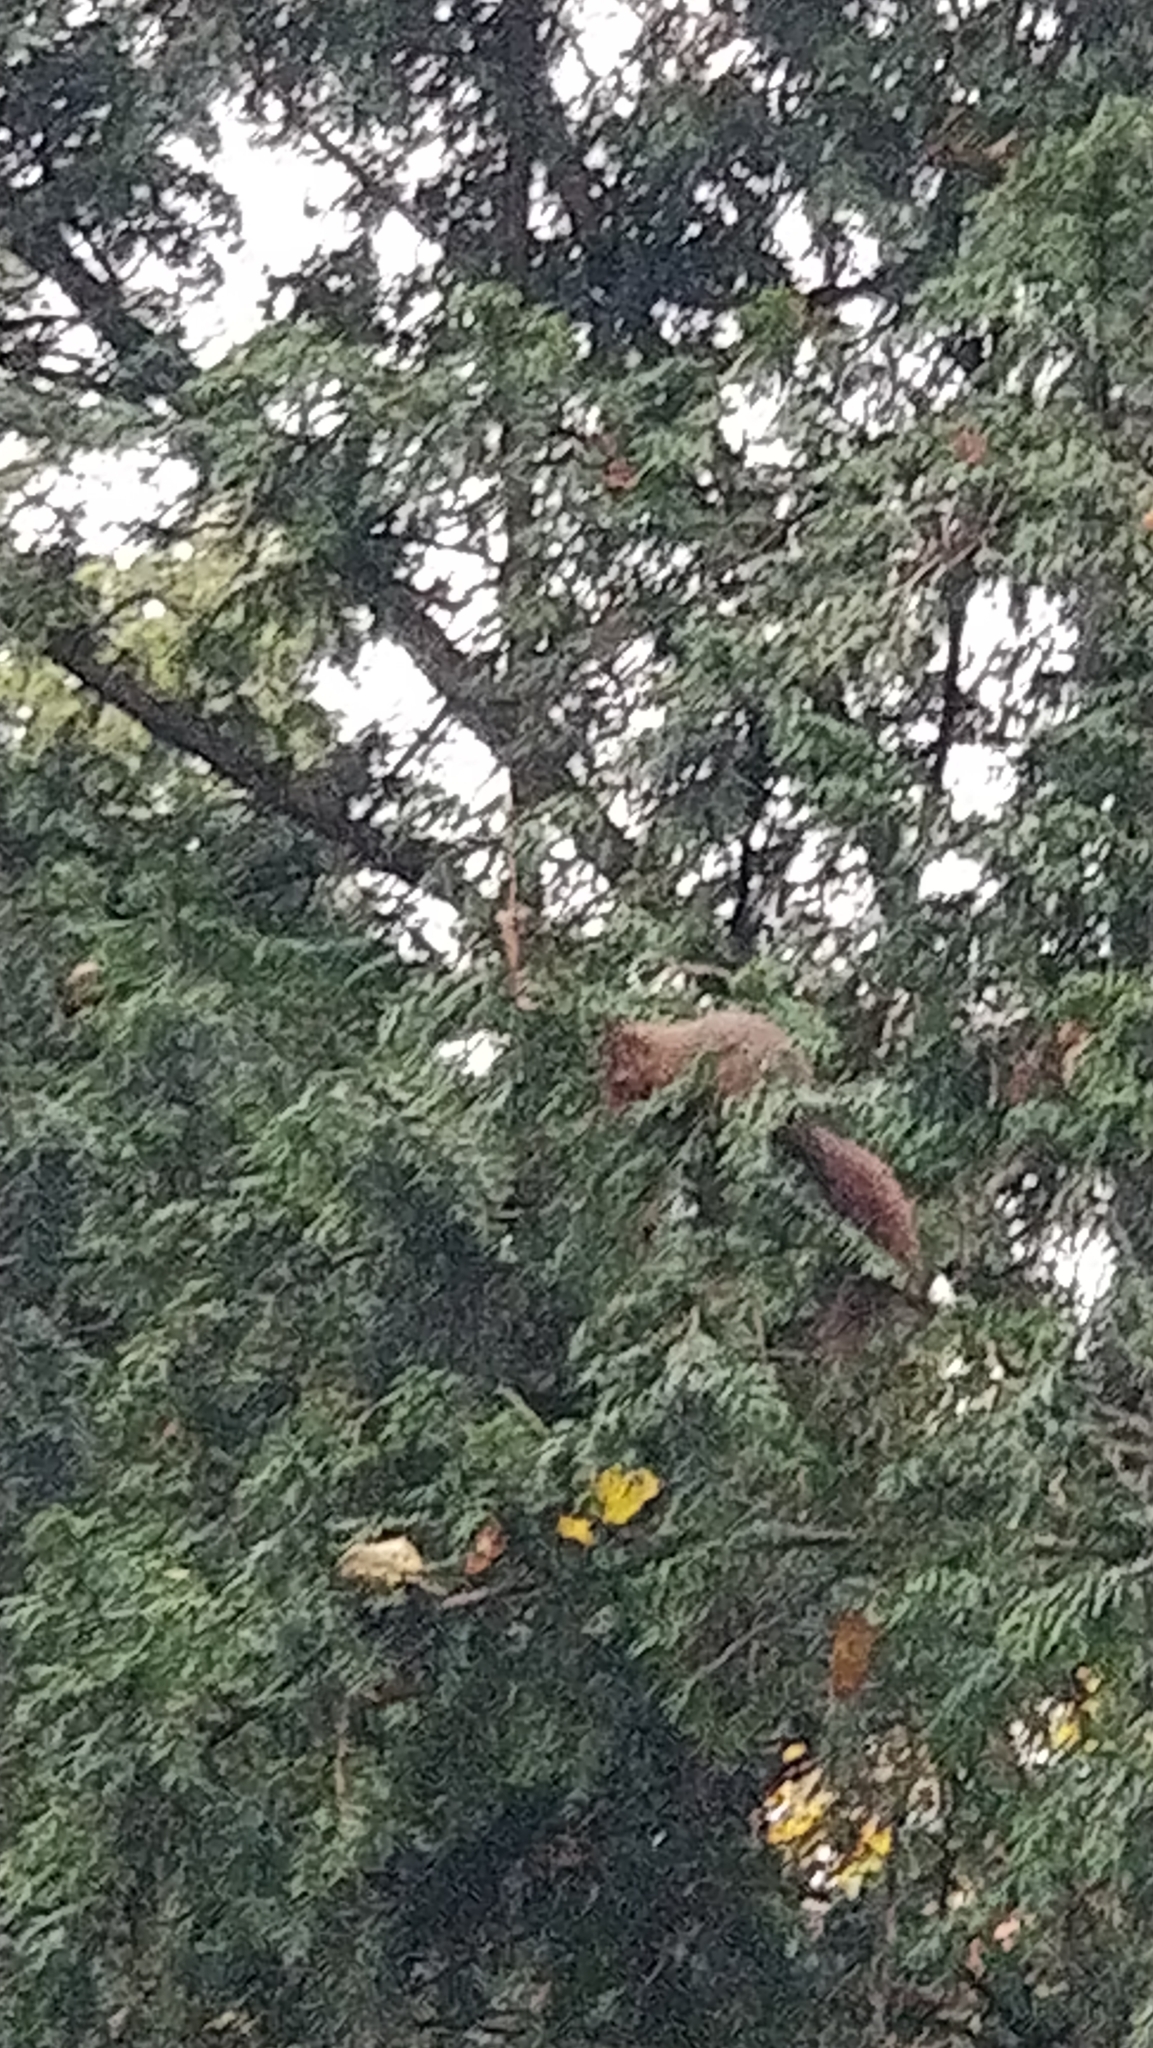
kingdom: Animalia
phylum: Chordata
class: Mammalia
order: Rodentia
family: Sciuridae
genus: Sciurus
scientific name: Sciurus vulgaris
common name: Eurasian red squirrel
